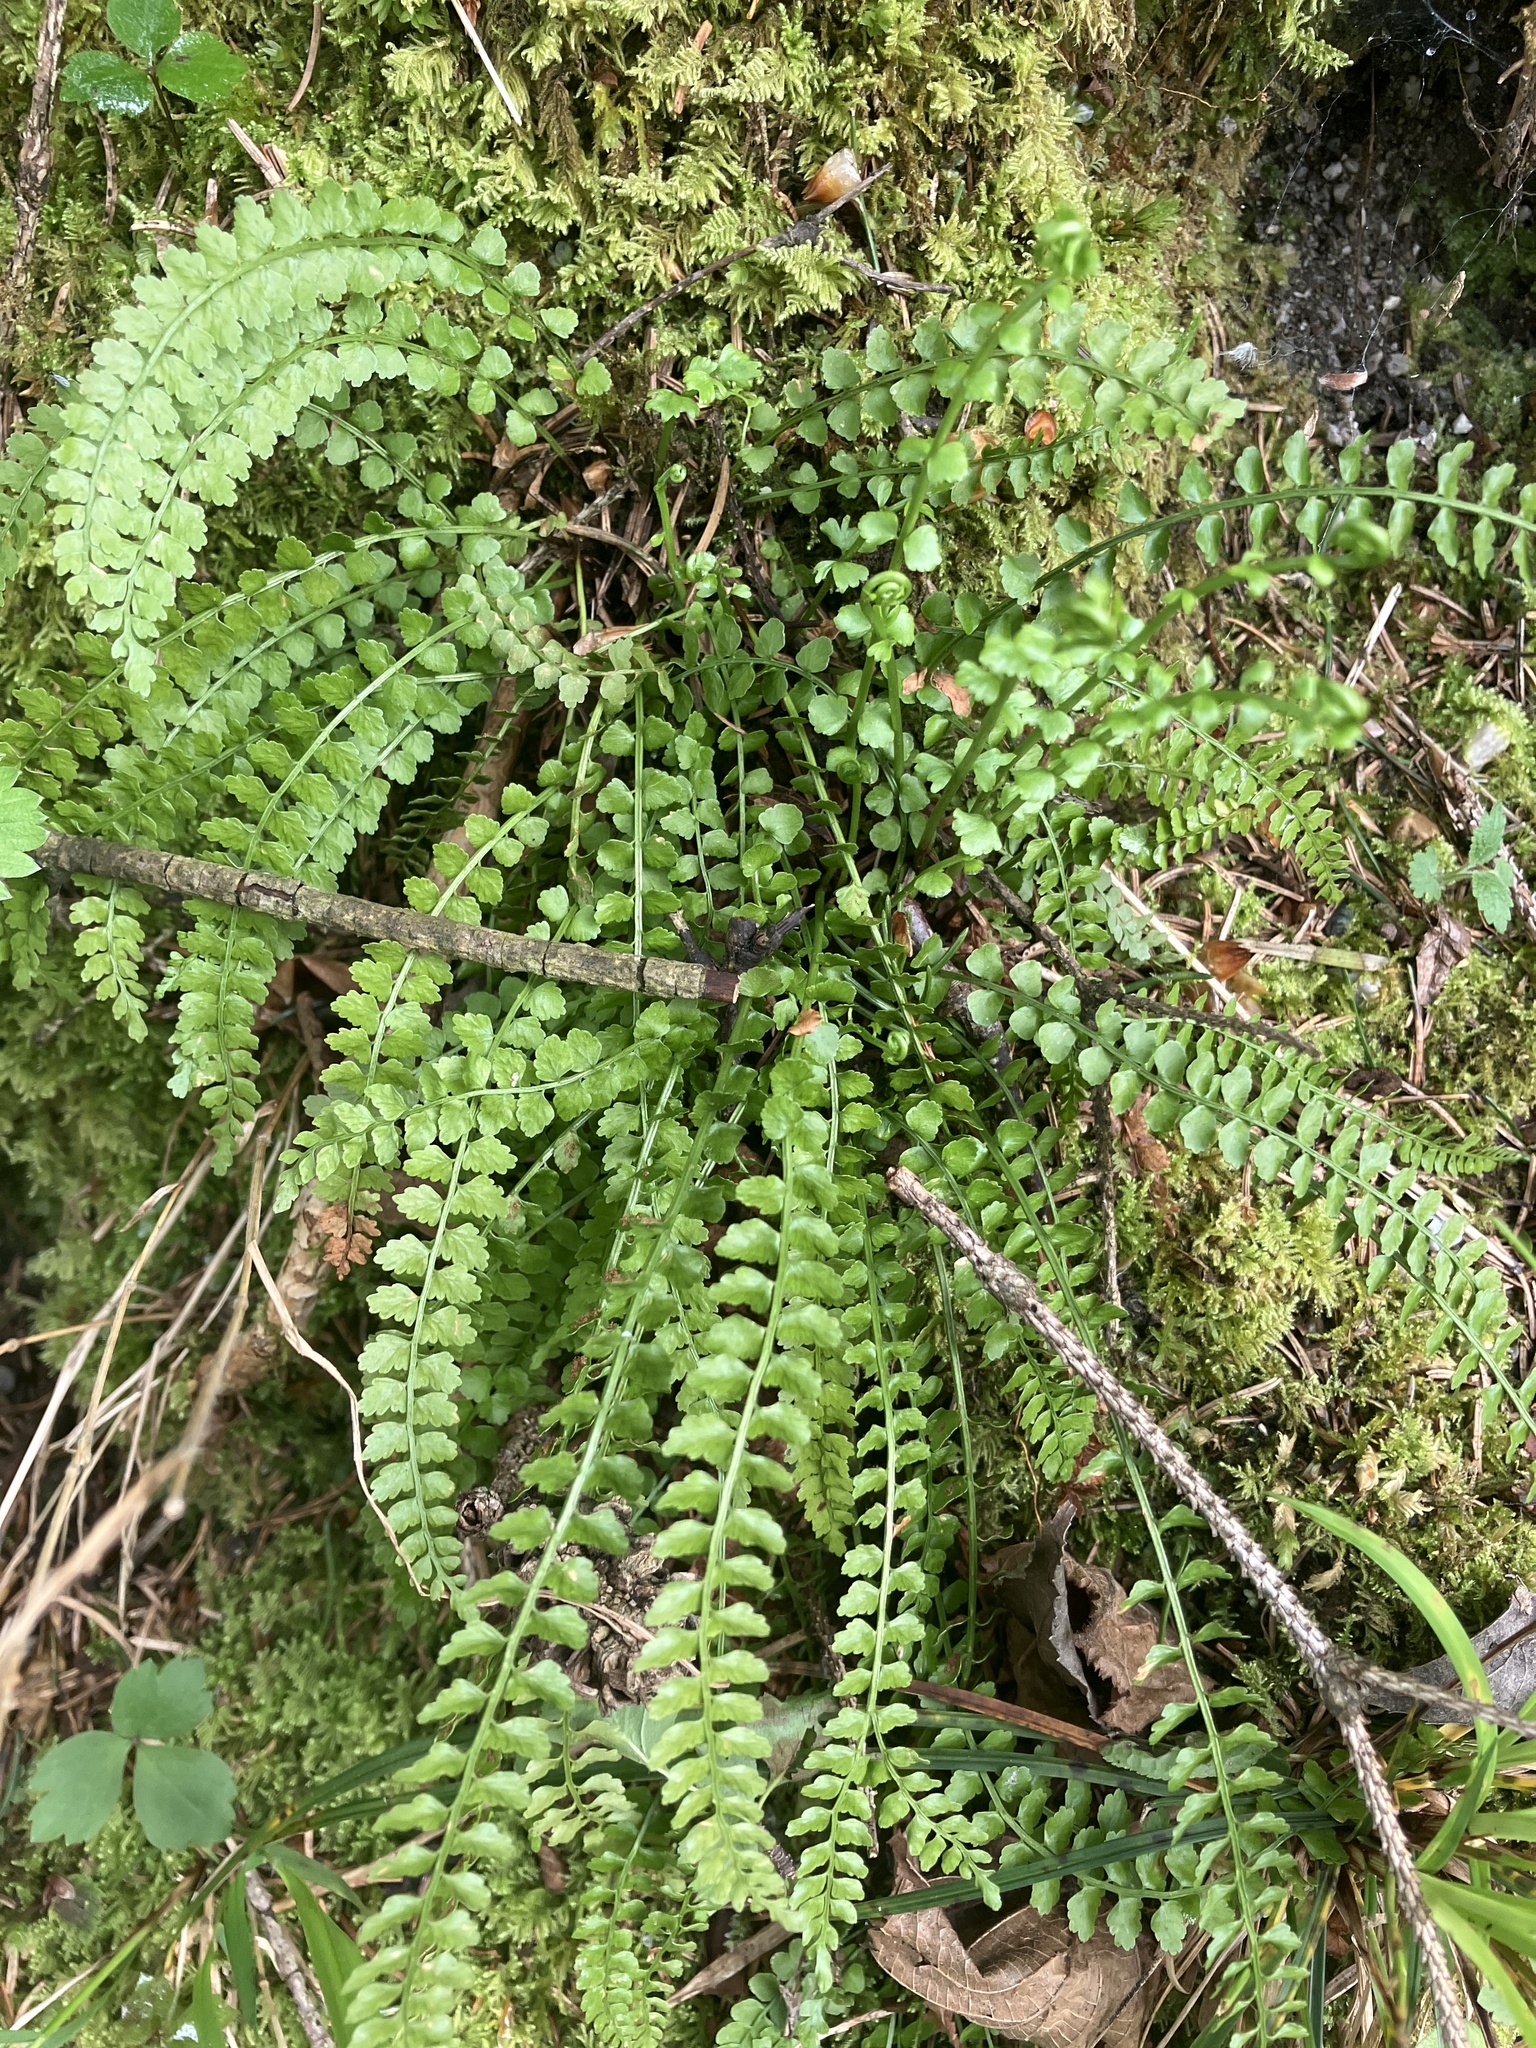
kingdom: Plantae
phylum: Tracheophyta
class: Polypodiopsida
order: Polypodiales
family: Aspleniaceae
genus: Asplenium
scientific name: Asplenium viride
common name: Green spleenwort
